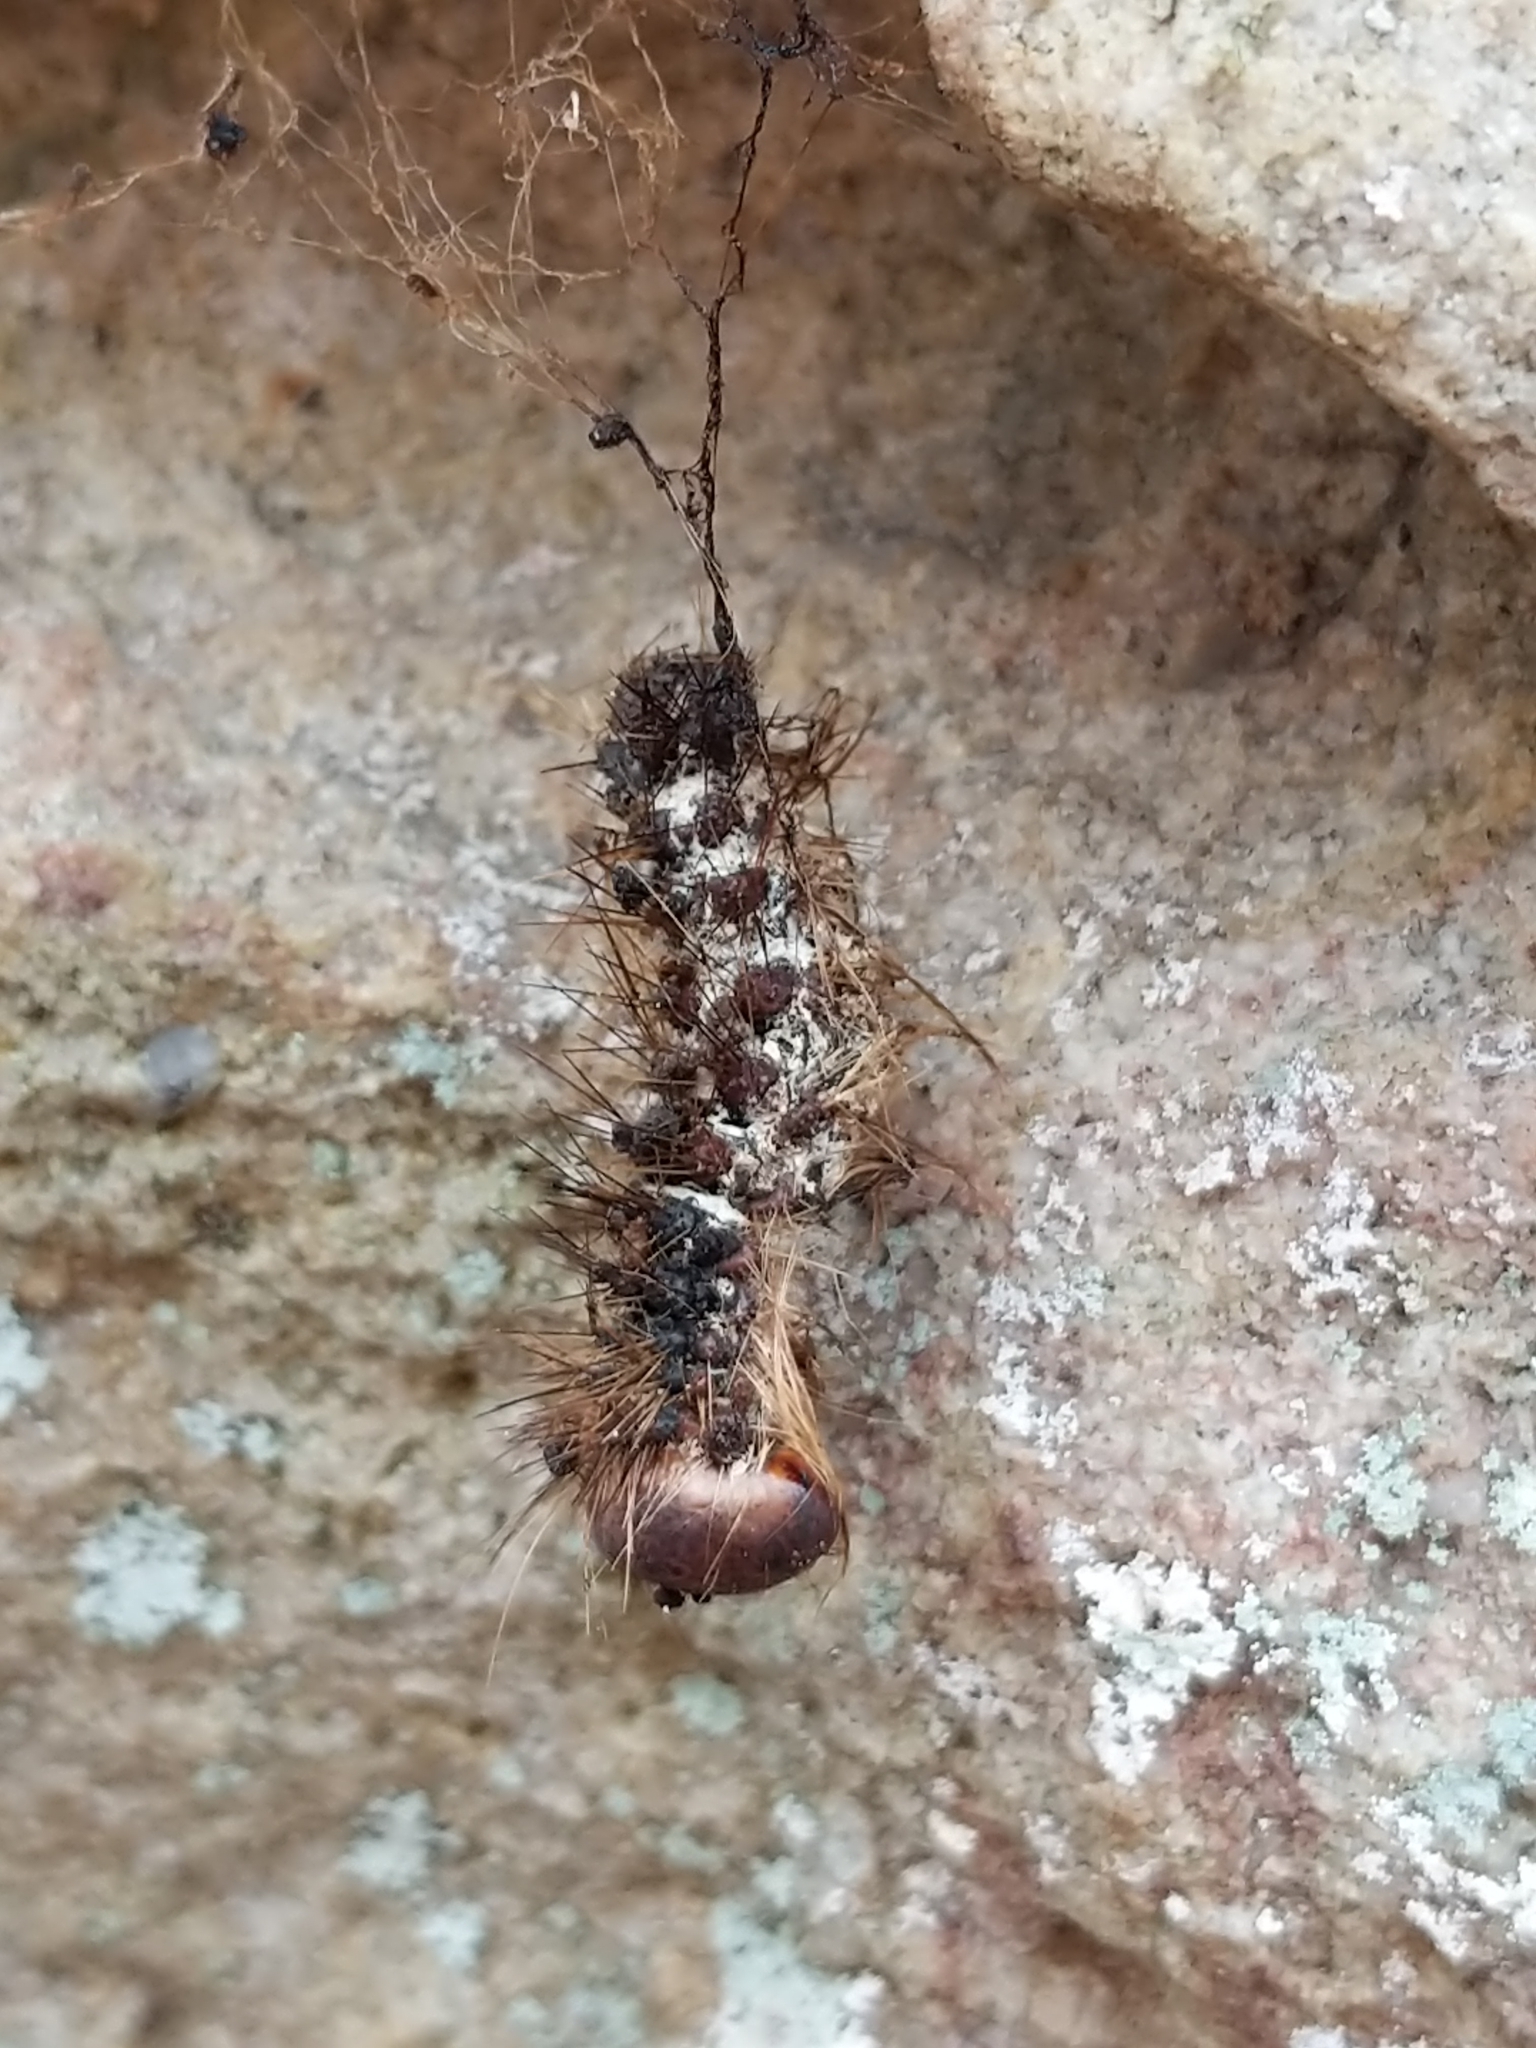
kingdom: Animalia
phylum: Arthropoda
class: Insecta
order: Lepidoptera
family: Erebidae
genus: Lymantria
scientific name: Lymantria dispar
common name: Gypsy moth
